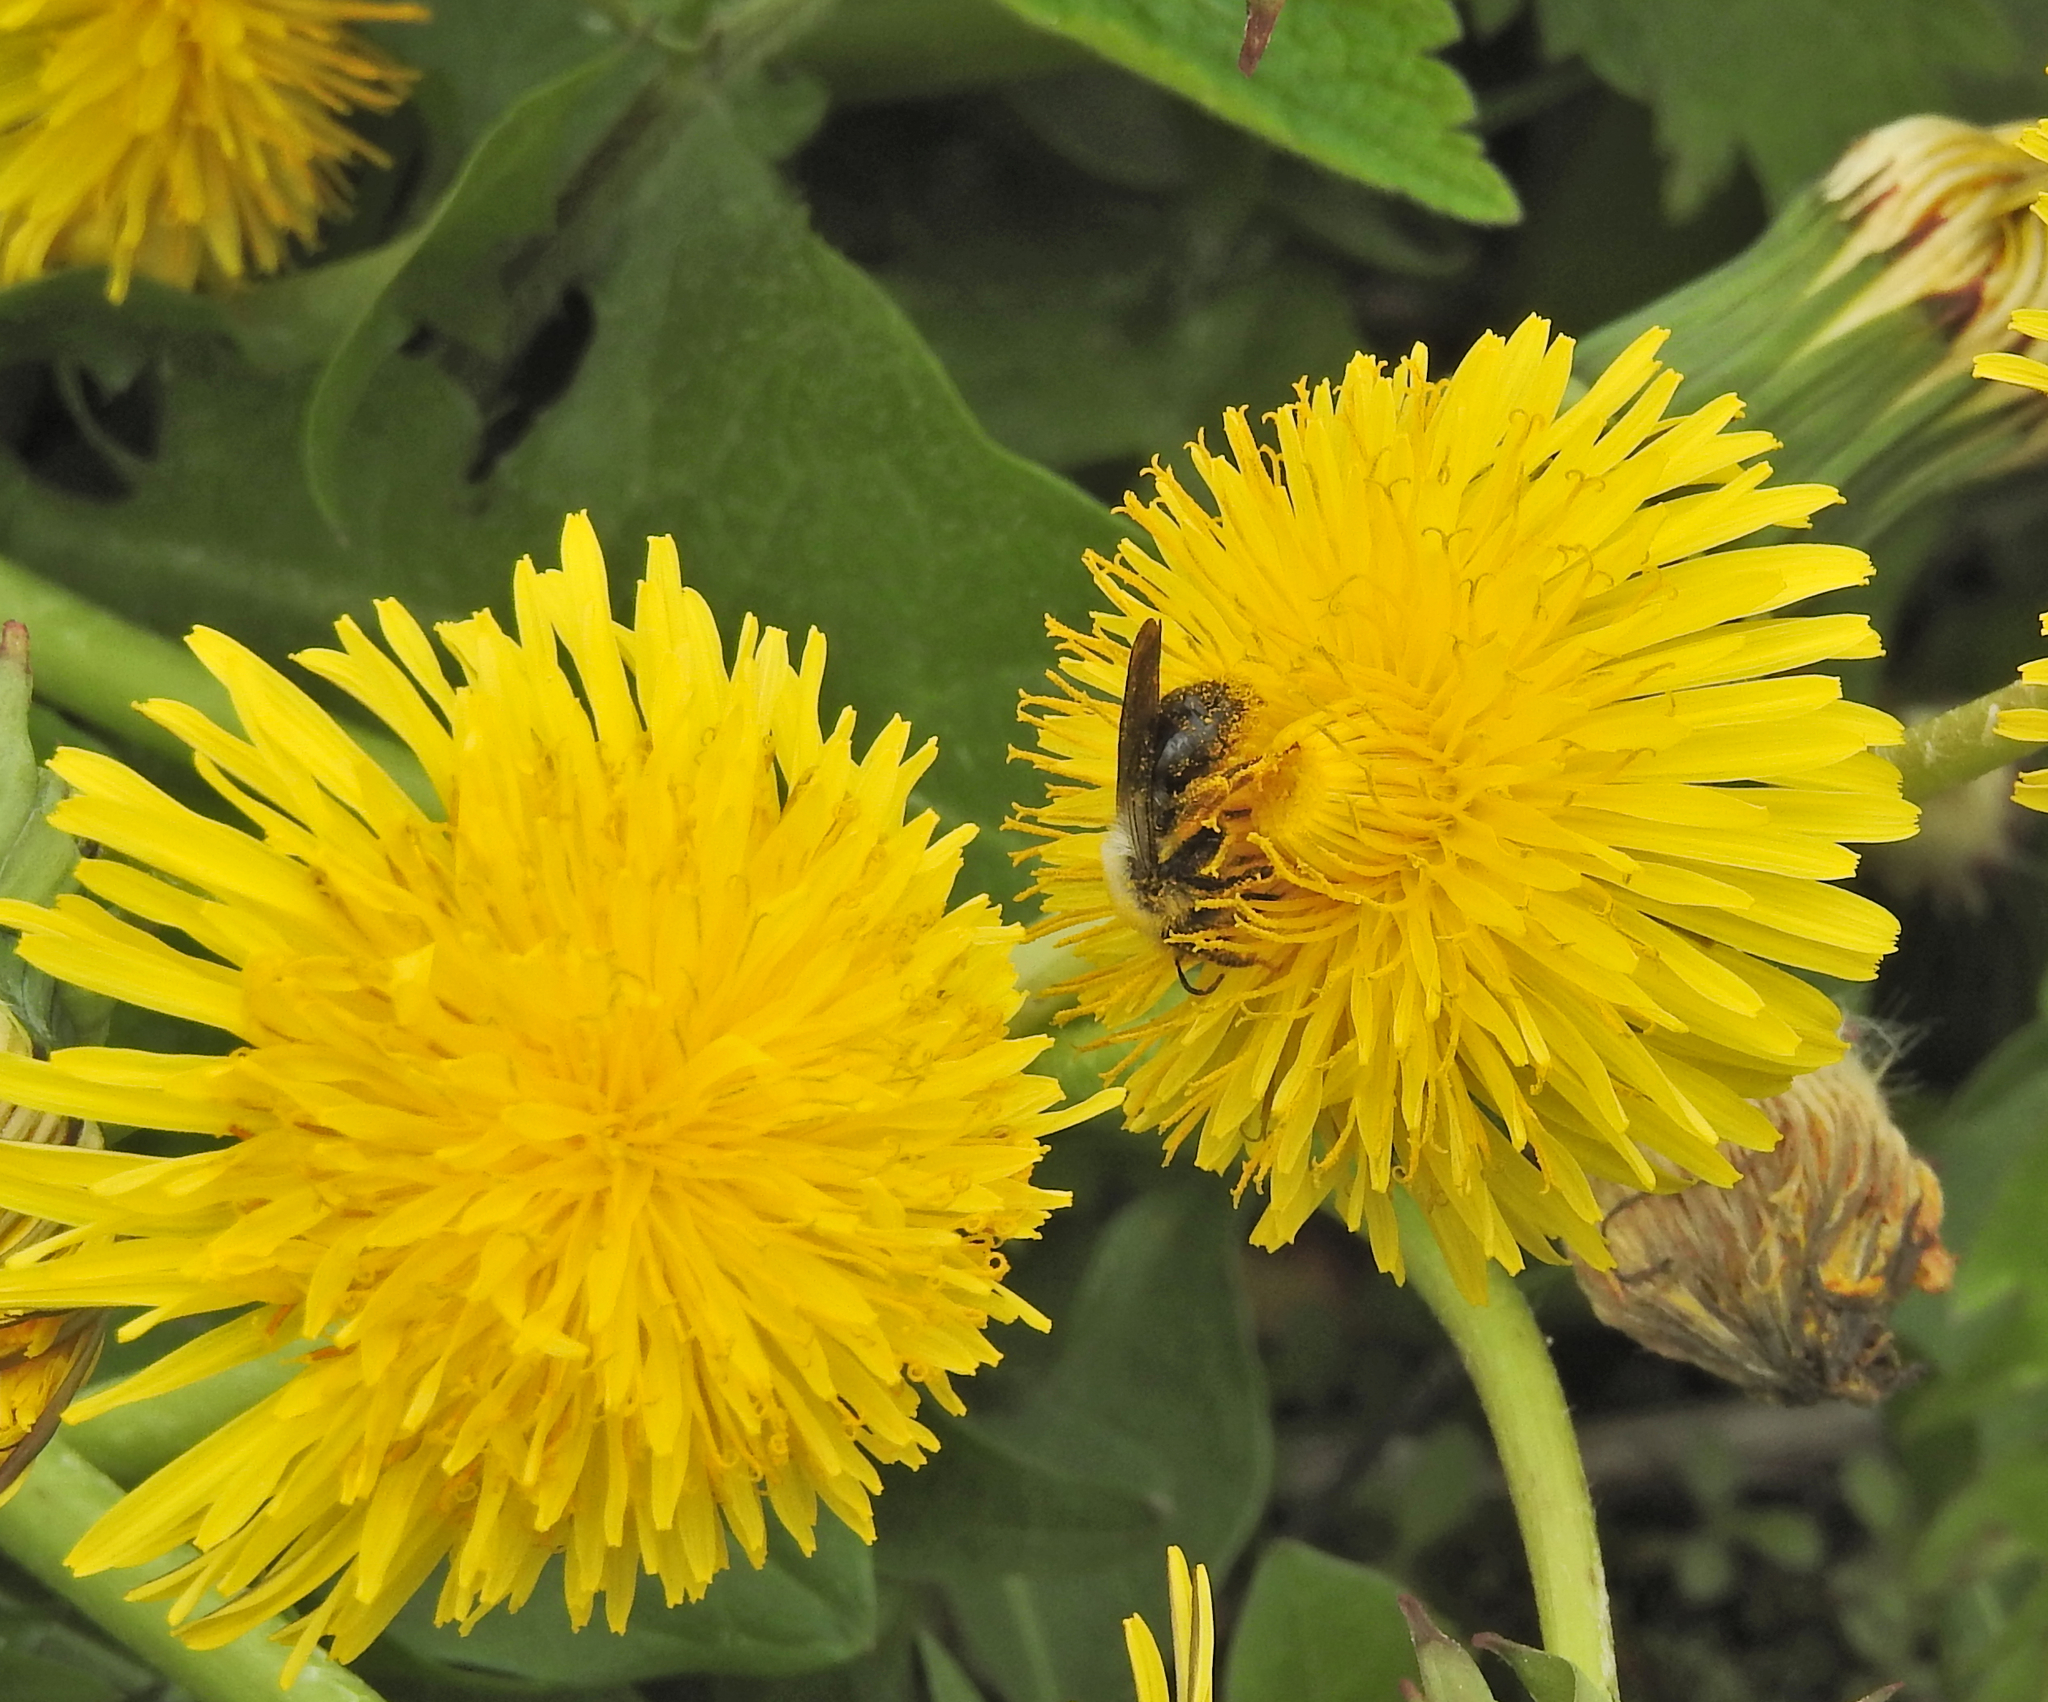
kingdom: Animalia
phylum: Arthropoda
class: Insecta
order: Hymenoptera
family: Andrenidae
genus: Andrena
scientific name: Andrena vaga
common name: Grey-backed mining bee
